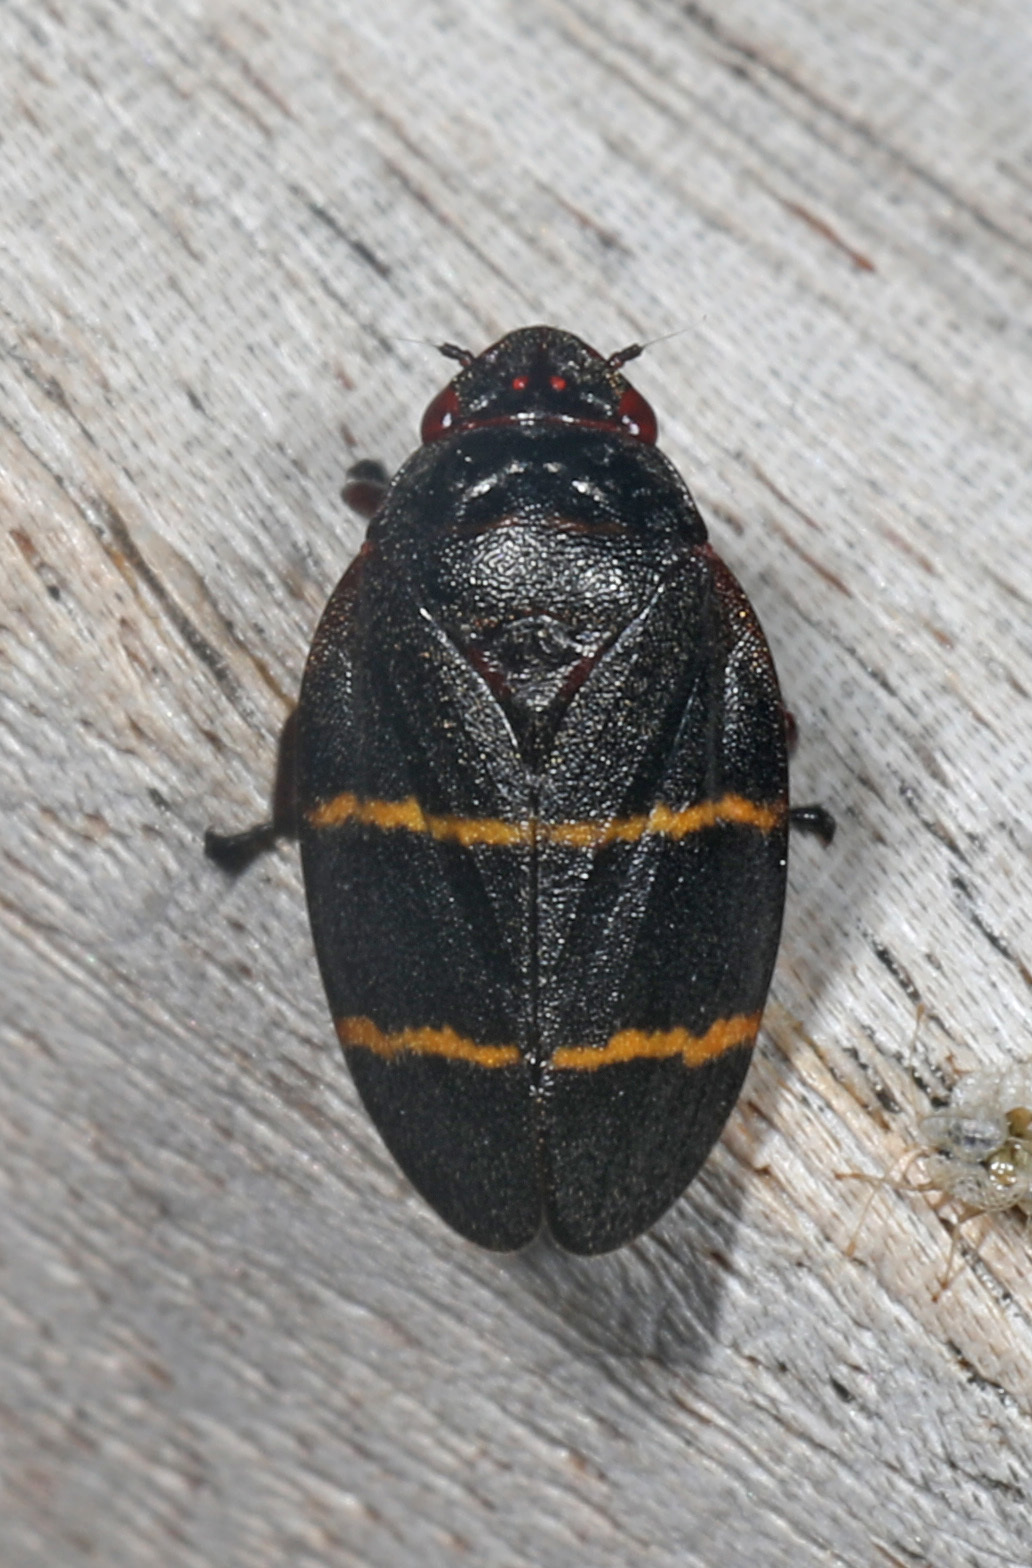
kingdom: Animalia
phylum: Arthropoda
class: Insecta
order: Hemiptera
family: Cercopidae
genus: Prosapia
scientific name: Prosapia bicincta
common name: Twolined spittlebug
